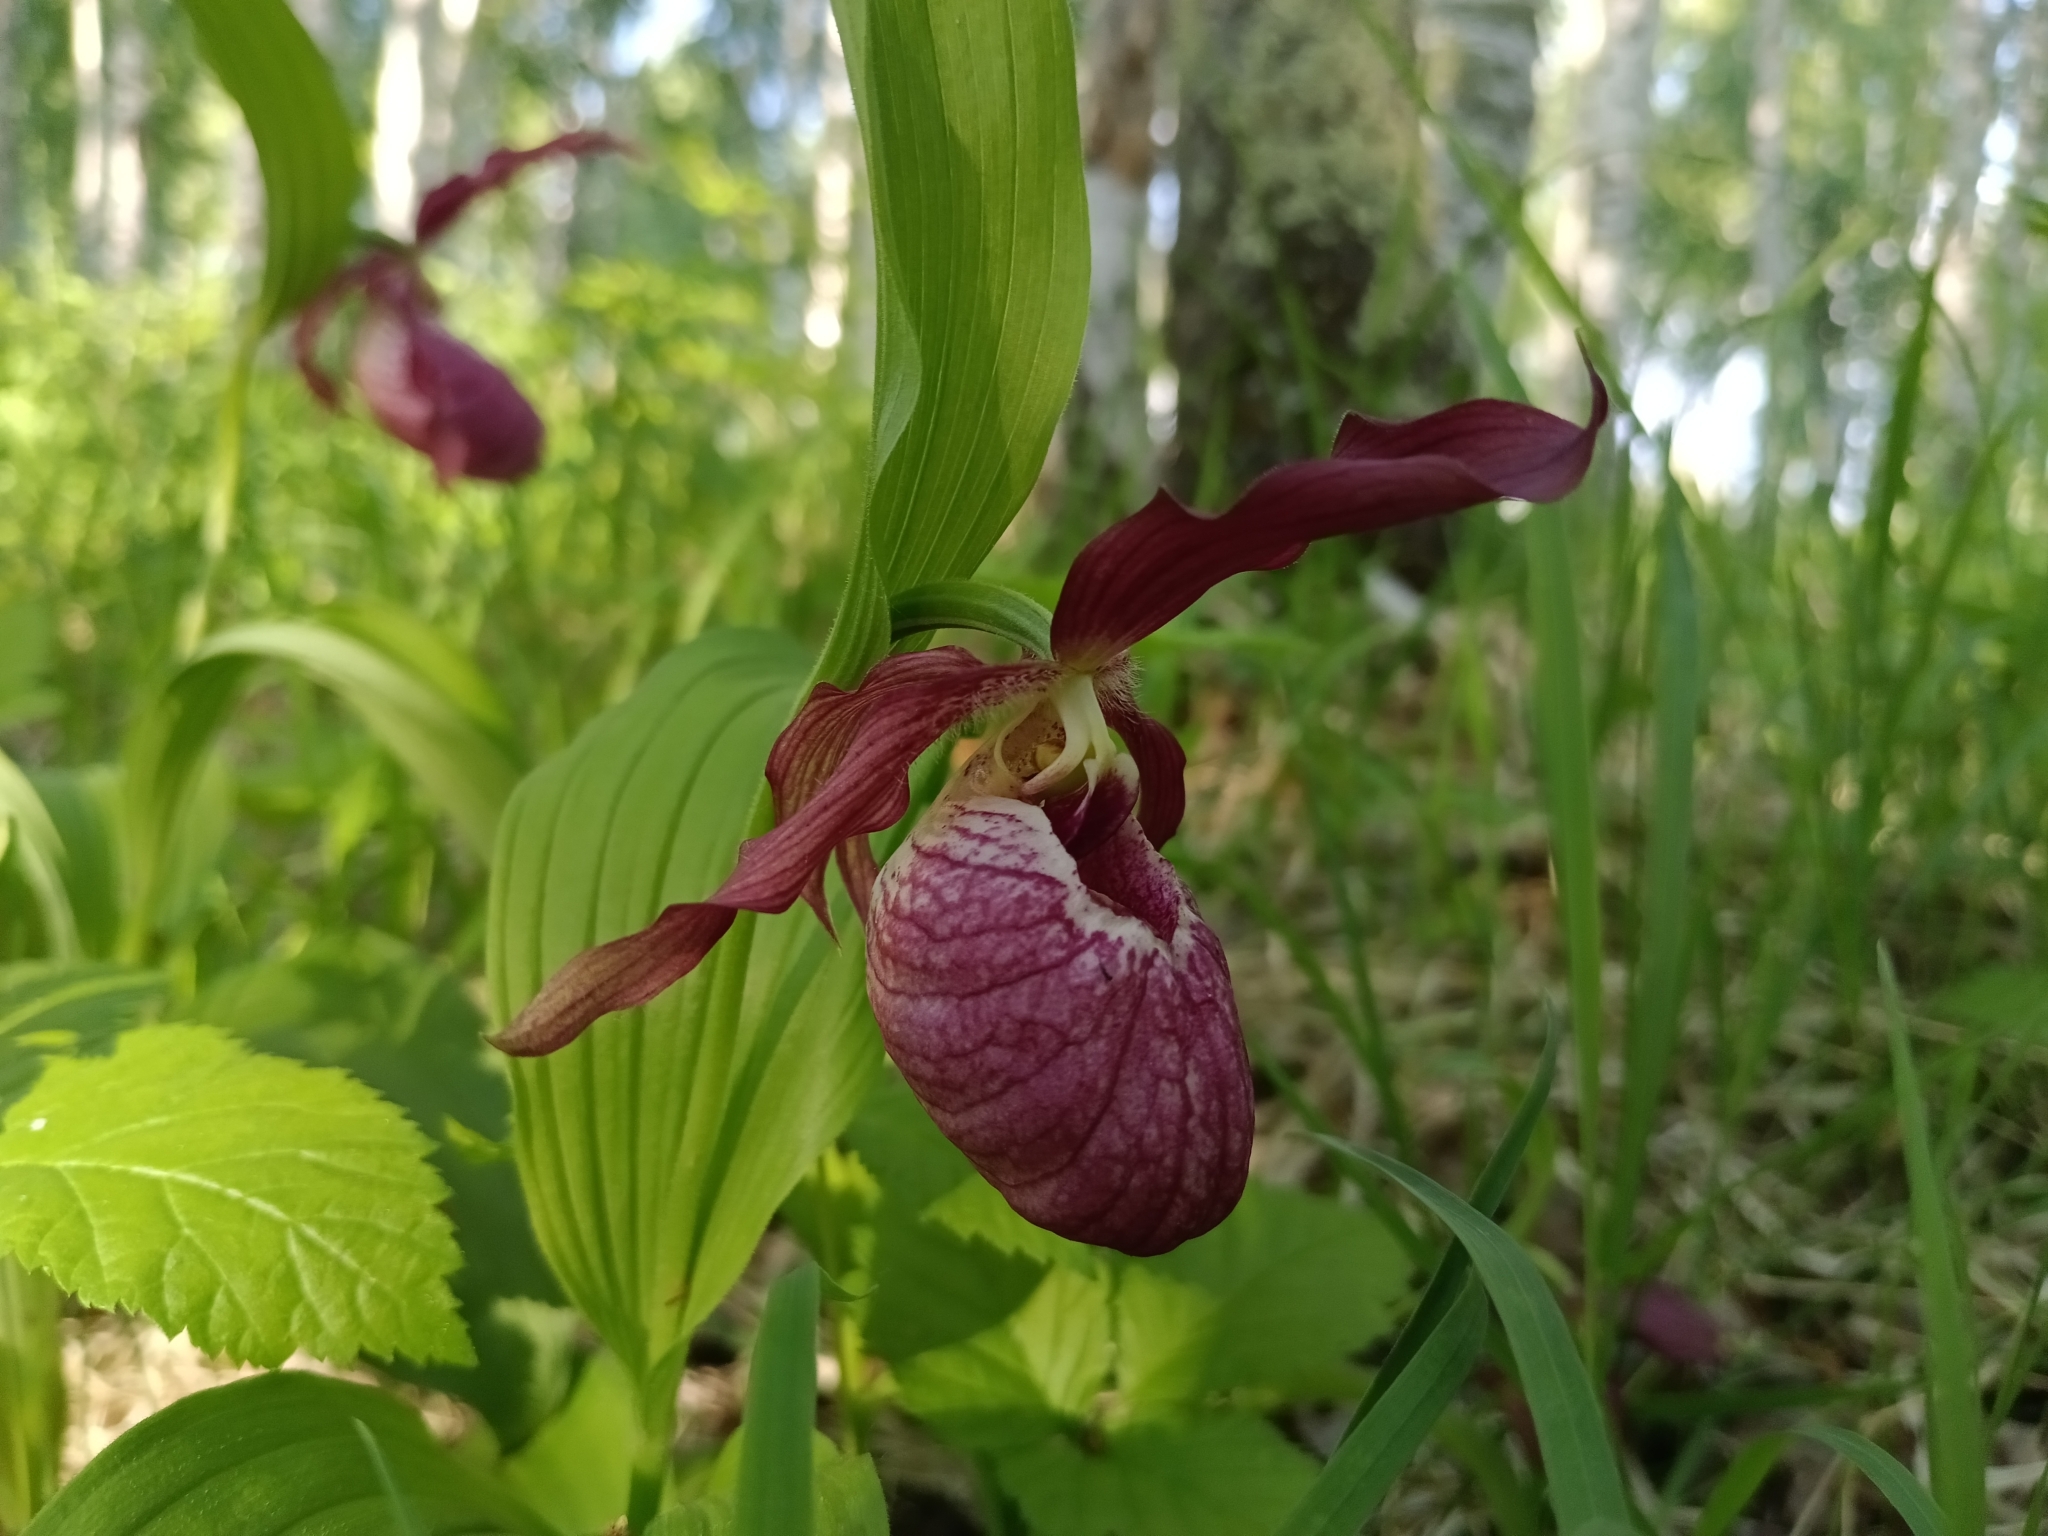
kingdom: Plantae
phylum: Tracheophyta
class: Liliopsida
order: Asparagales
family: Orchidaceae
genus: Cypripedium
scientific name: Cypripedium ventricosum
